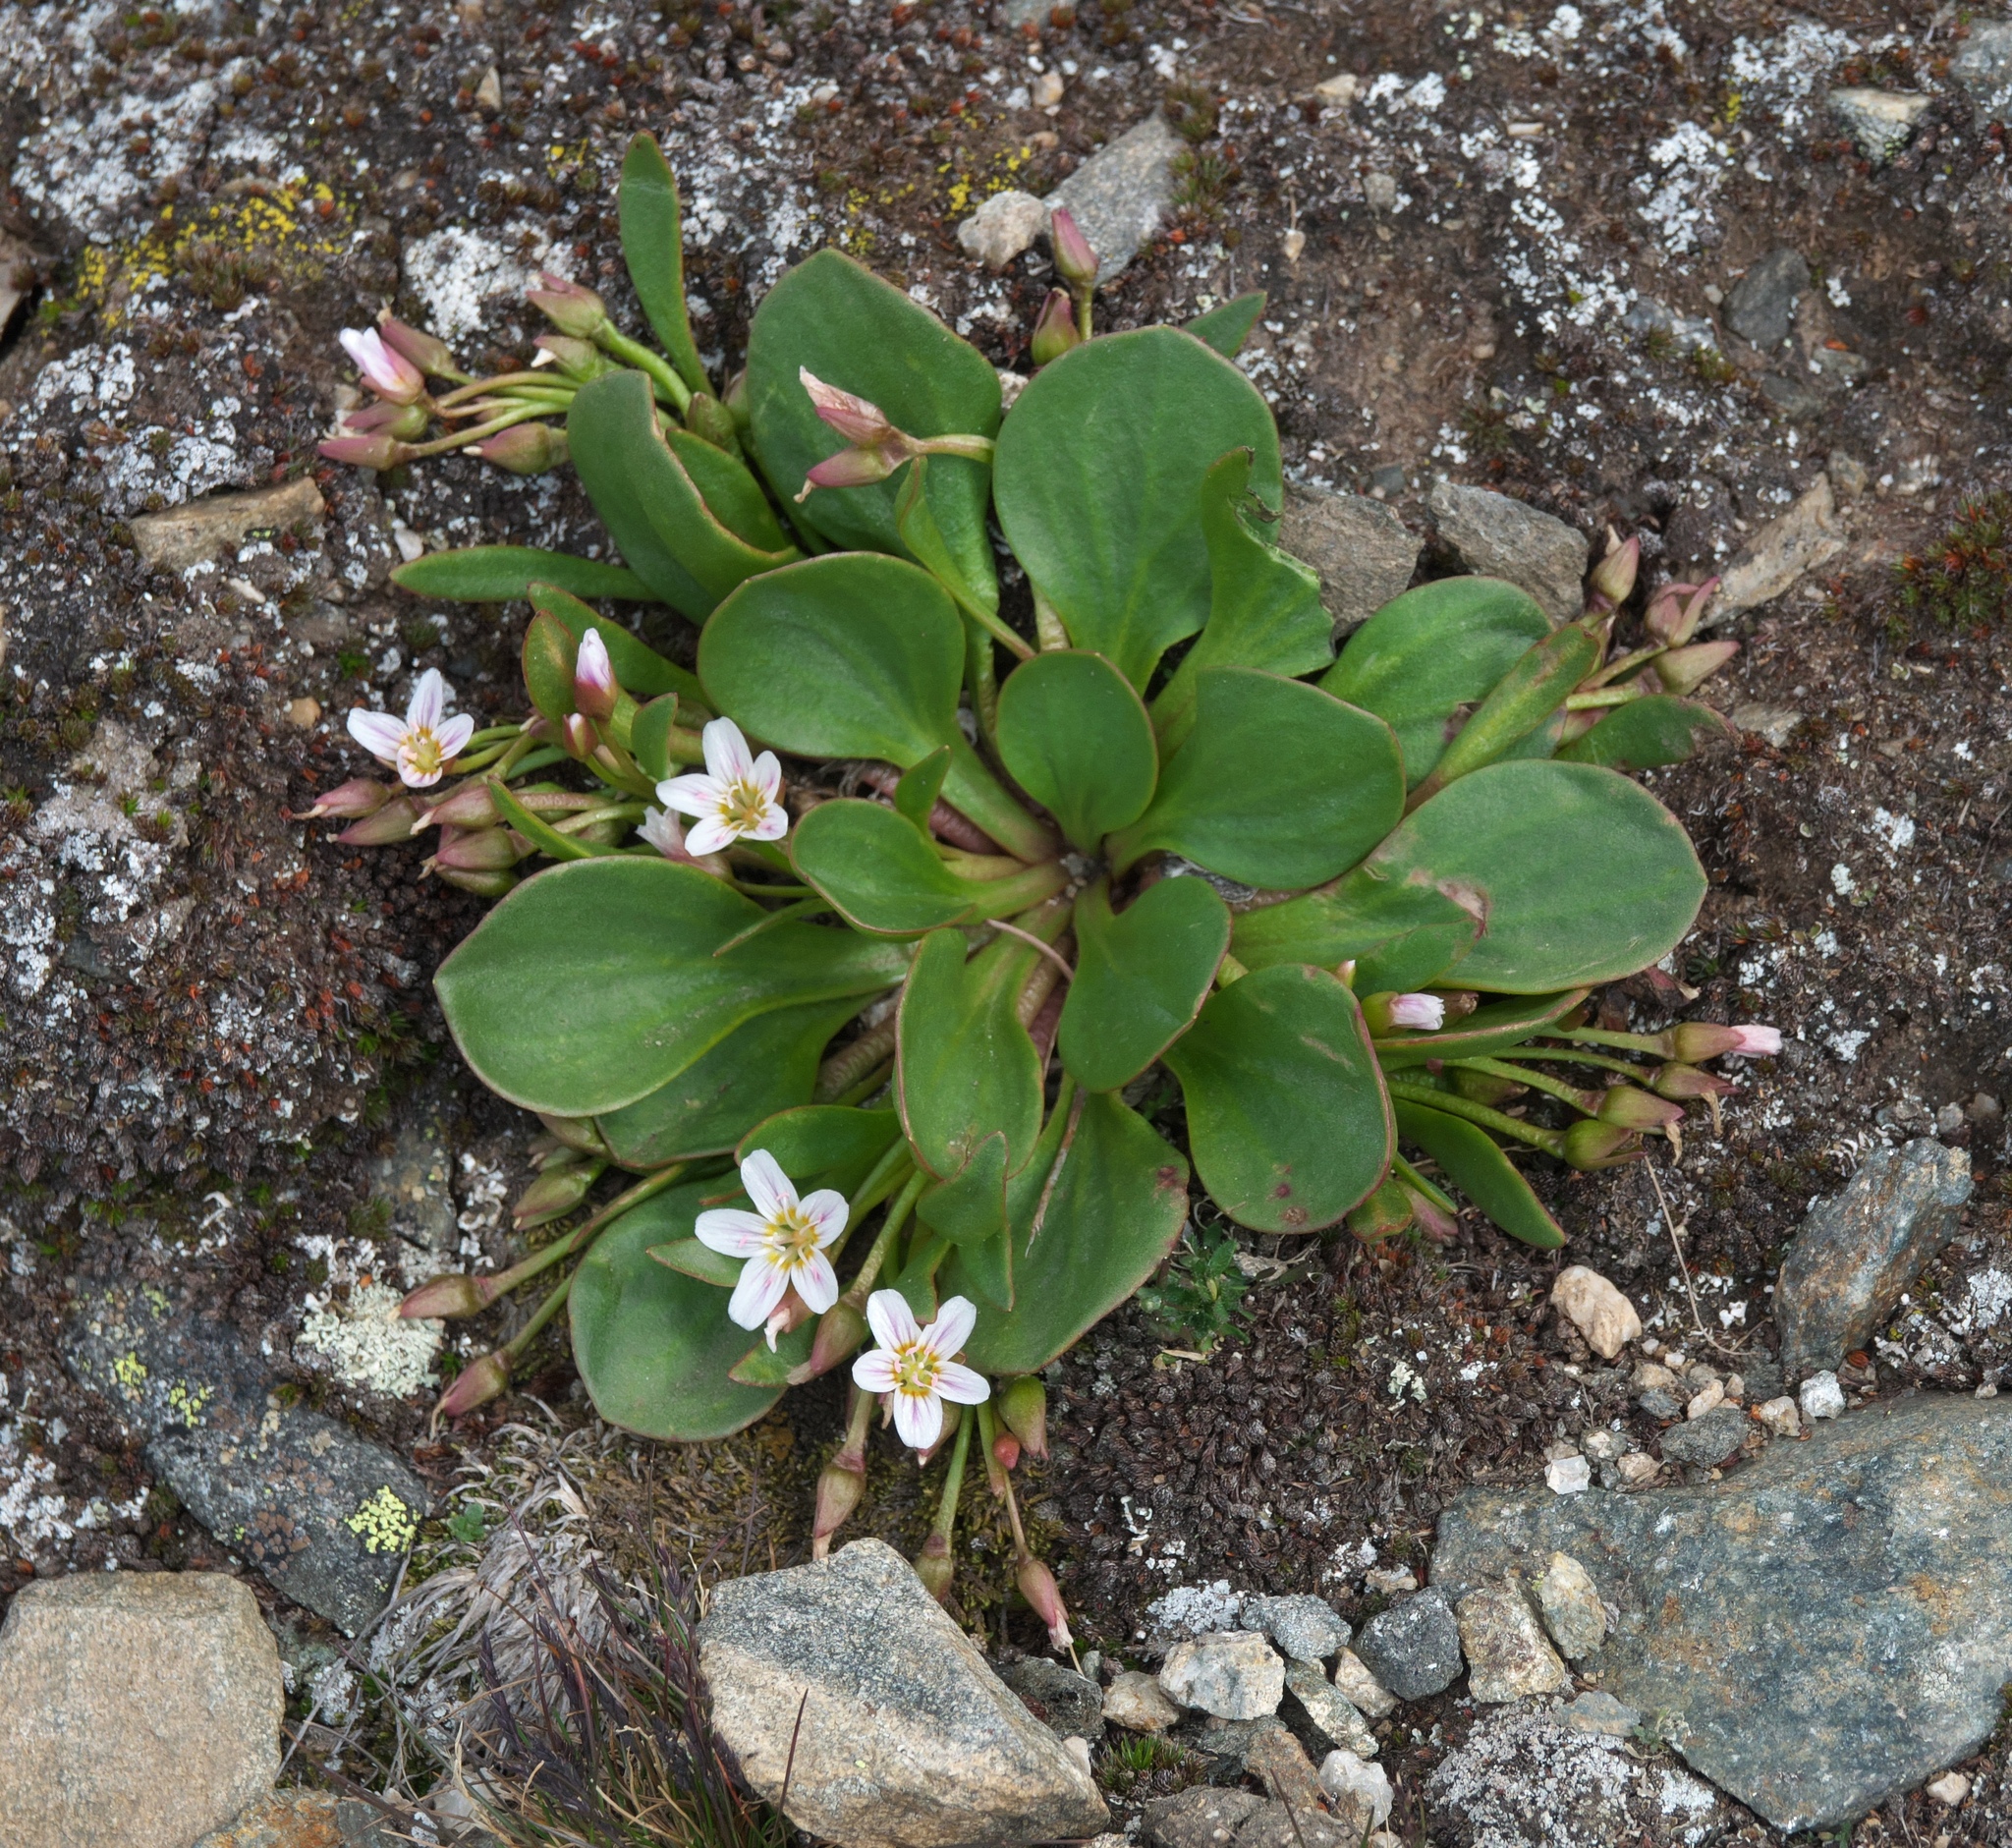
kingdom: Plantae
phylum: Tracheophyta
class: Magnoliopsida
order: Caryophyllales
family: Montiaceae
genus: Claytonia
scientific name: Claytonia megarhiza
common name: Alpine spring beauty
